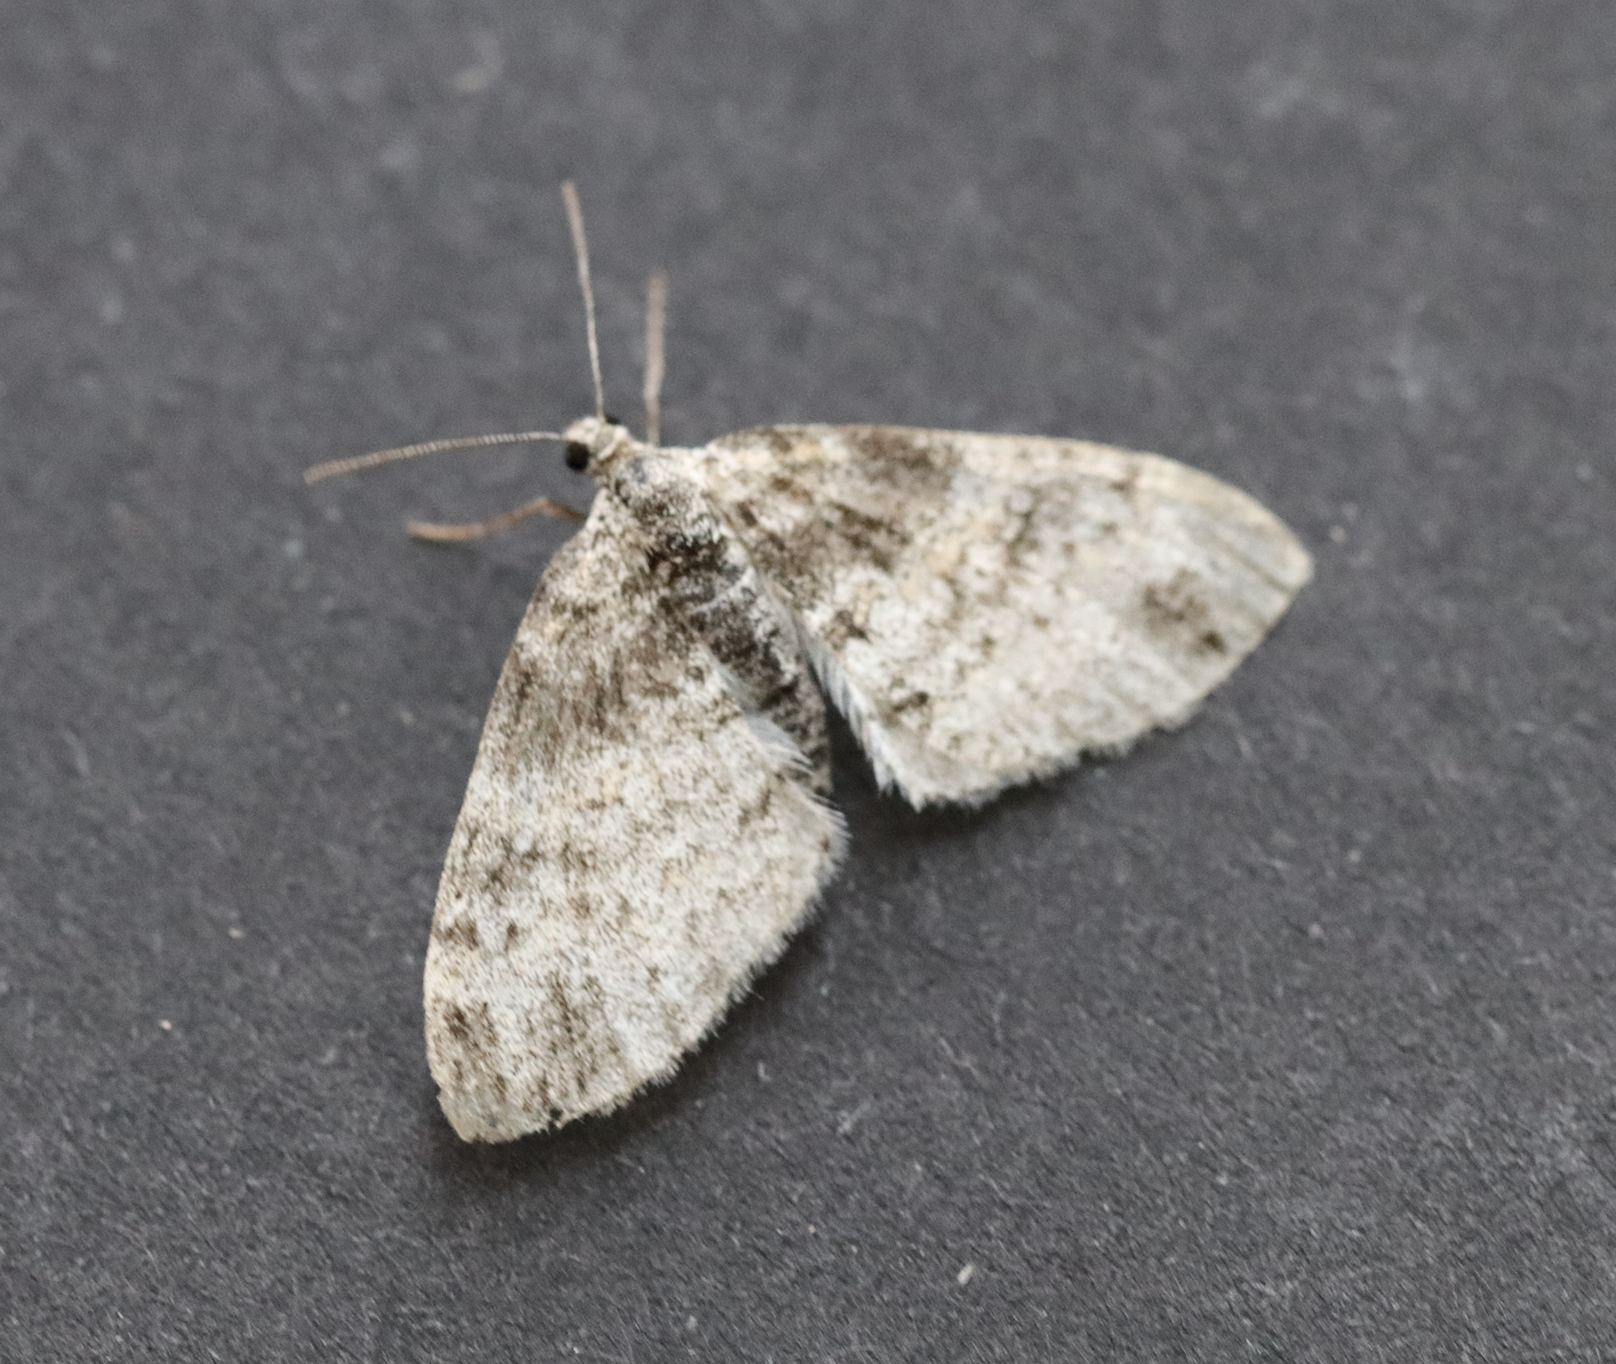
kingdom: Animalia
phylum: Arthropoda
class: Insecta
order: Lepidoptera
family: Geometridae
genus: Lobophora
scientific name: Lobophora halterata
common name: Seraphim
